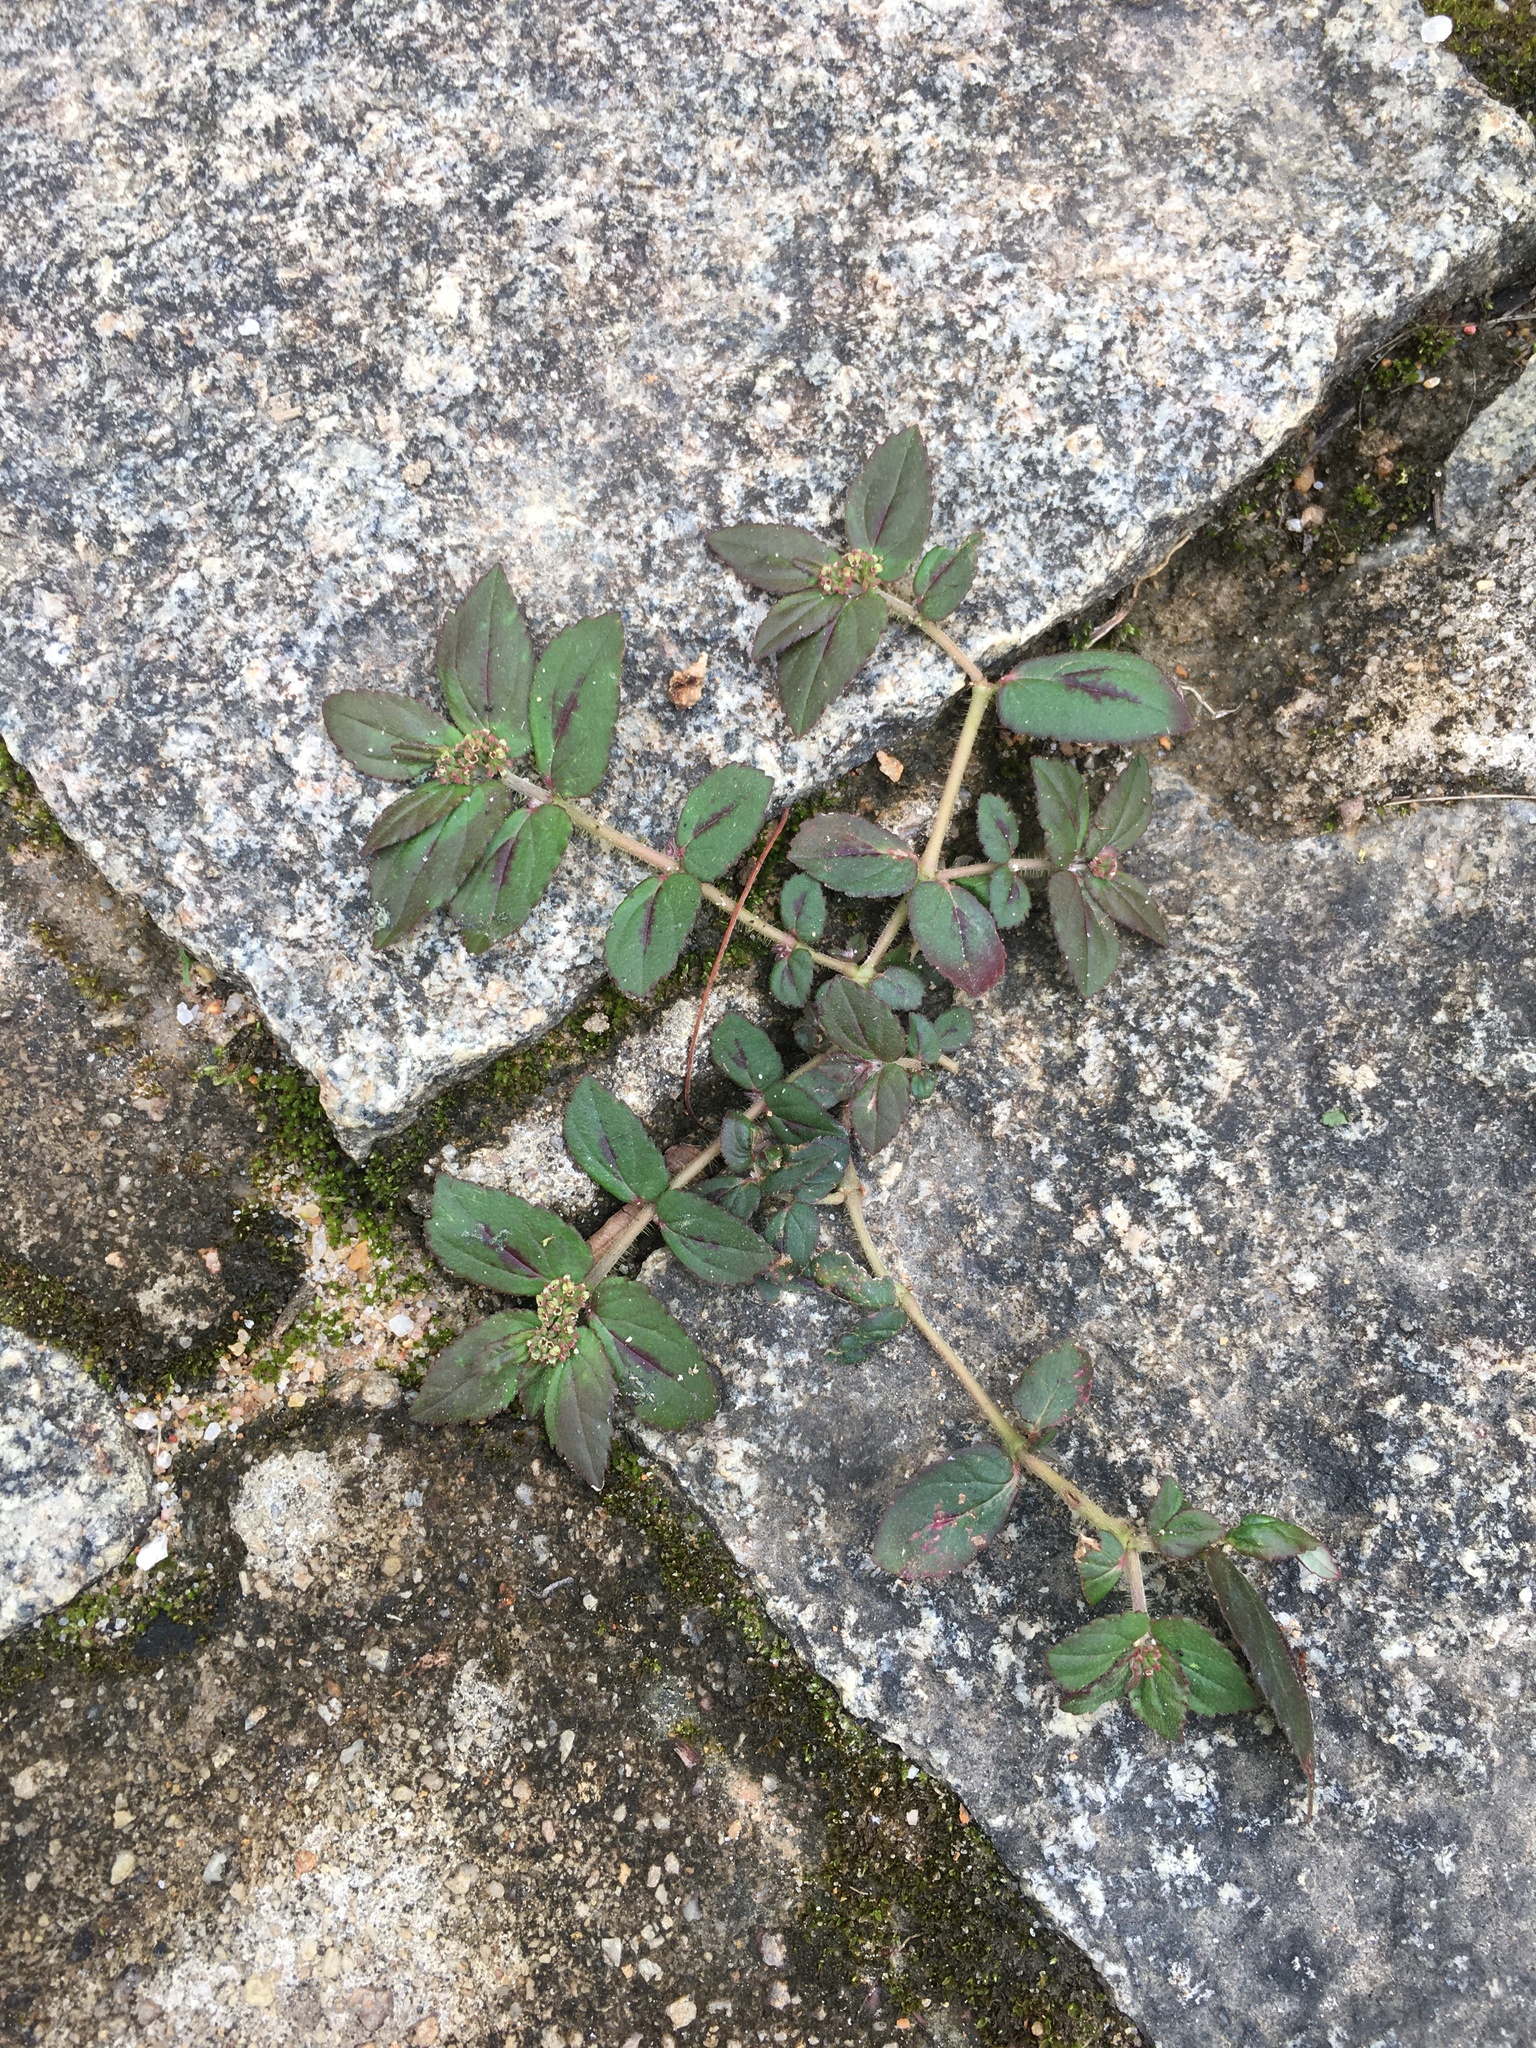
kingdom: Plantae
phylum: Tracheophyta
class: Magnoliopsida
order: Malpighiales
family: Euphorbiaceae
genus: Euphorbia
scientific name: Euphorbia hirta
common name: Pillpod sandmat
